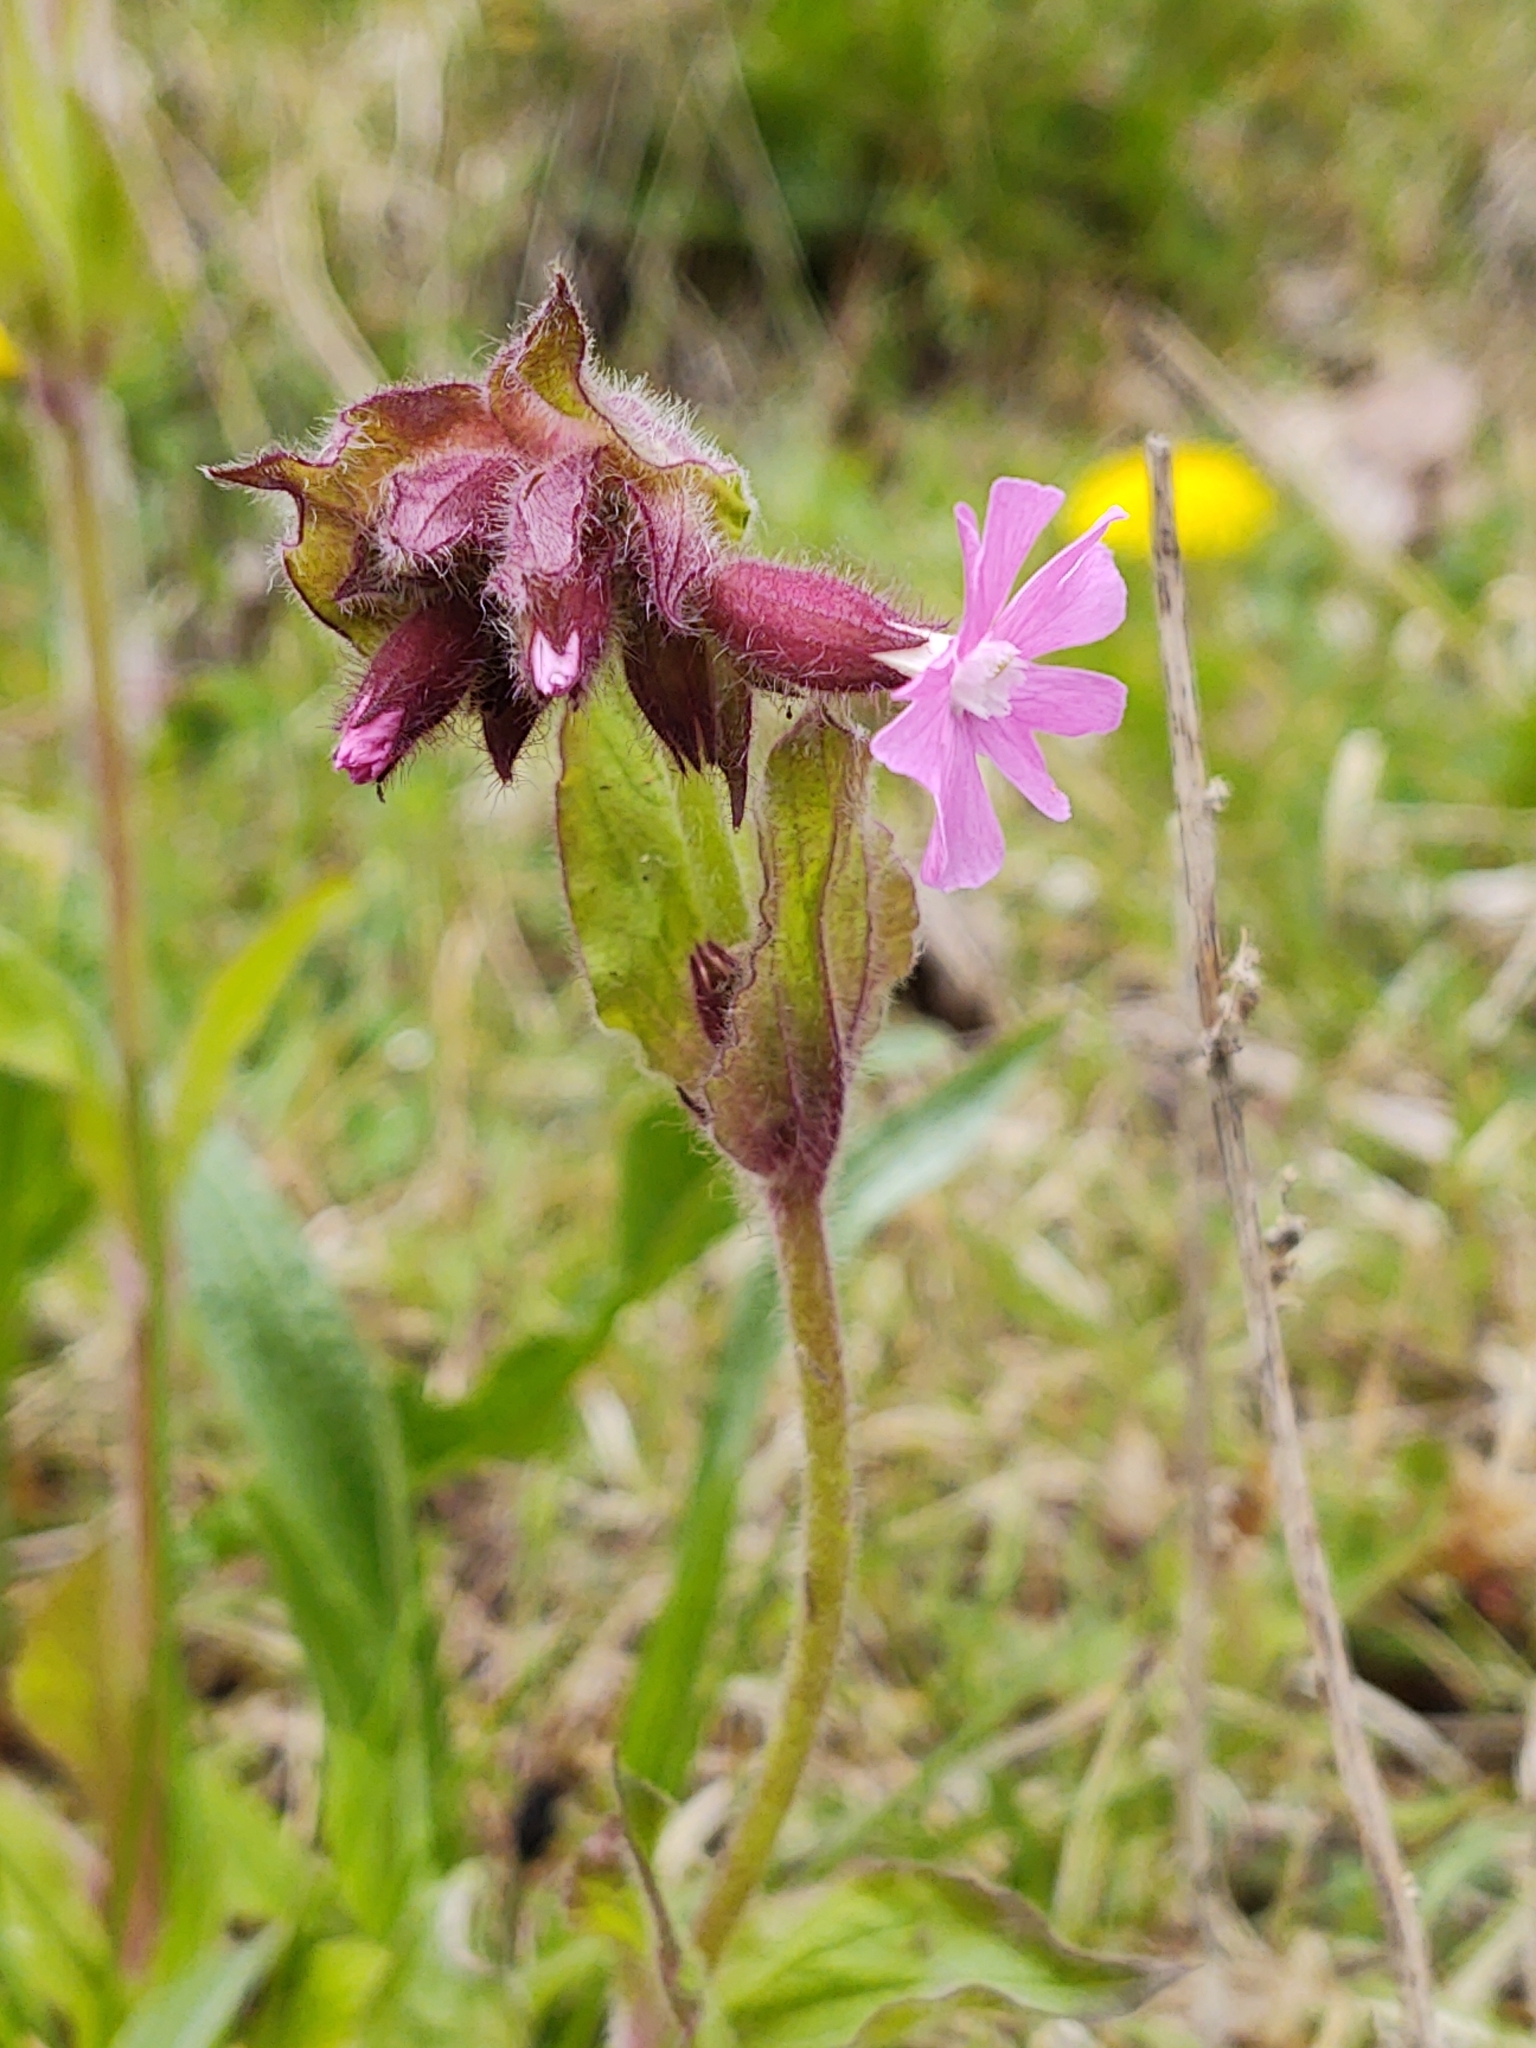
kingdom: Plantae
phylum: Tracheophyta
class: Magnoliopsida
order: Caryophyllales
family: Caryophyllaceae
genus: Silene
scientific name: Silene dioica
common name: Red campion
